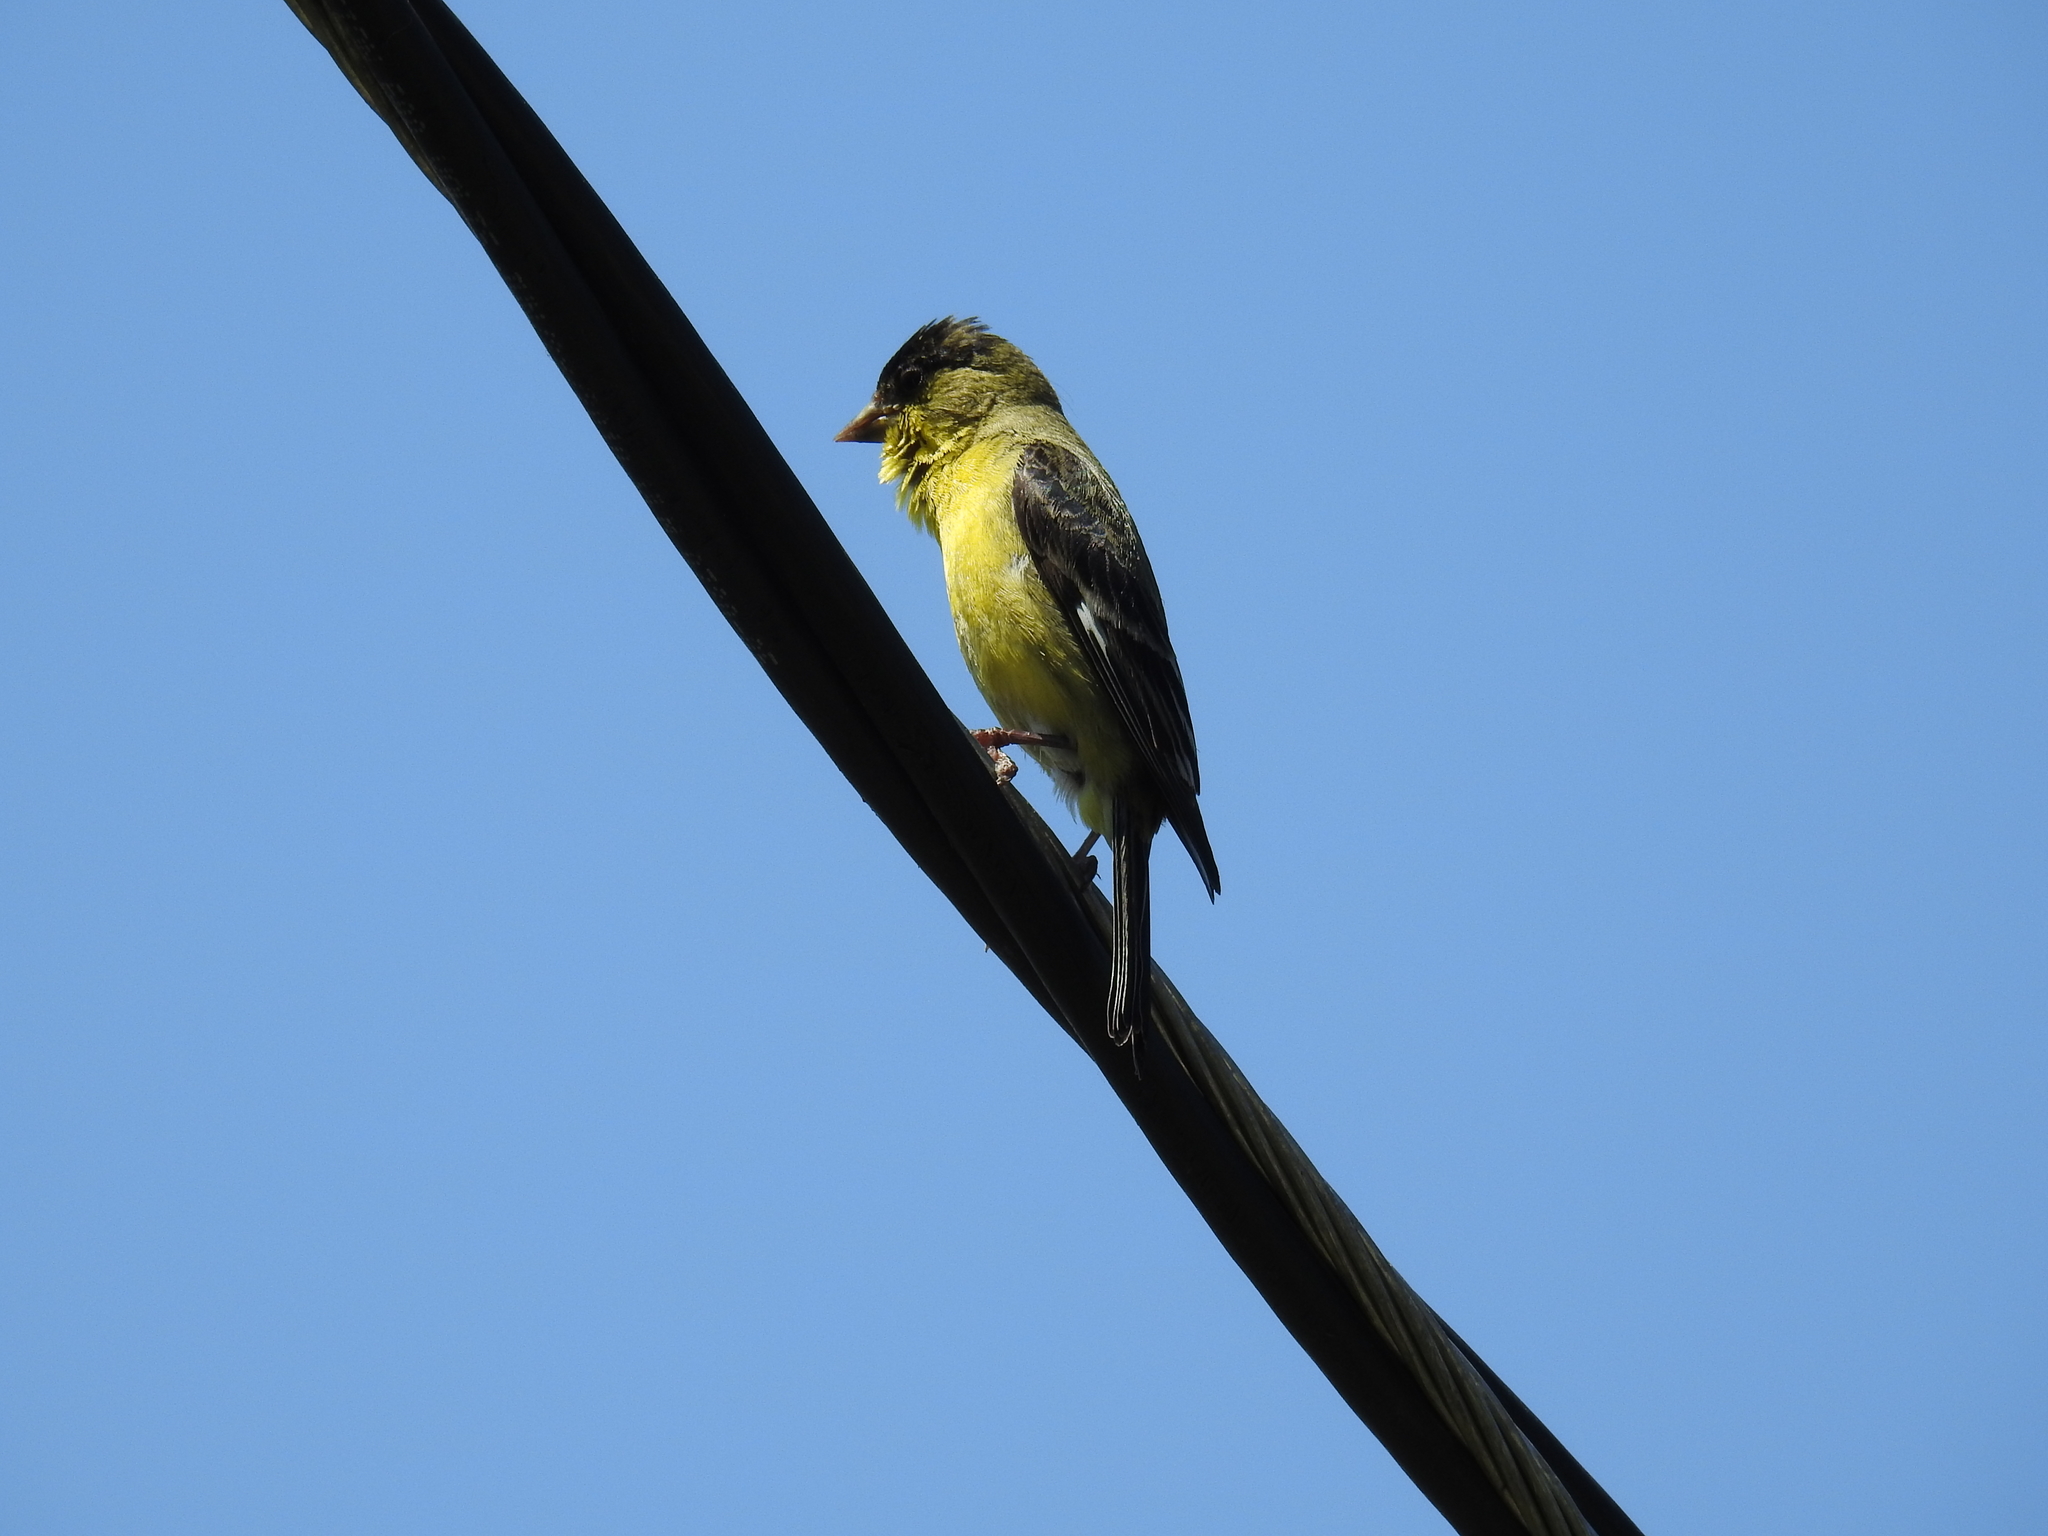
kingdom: Animalia
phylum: Chordata
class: Aves
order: Passeriformes
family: Fringillidae
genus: Spinus
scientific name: Spinus psaltria
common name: Lesser goldfinch
